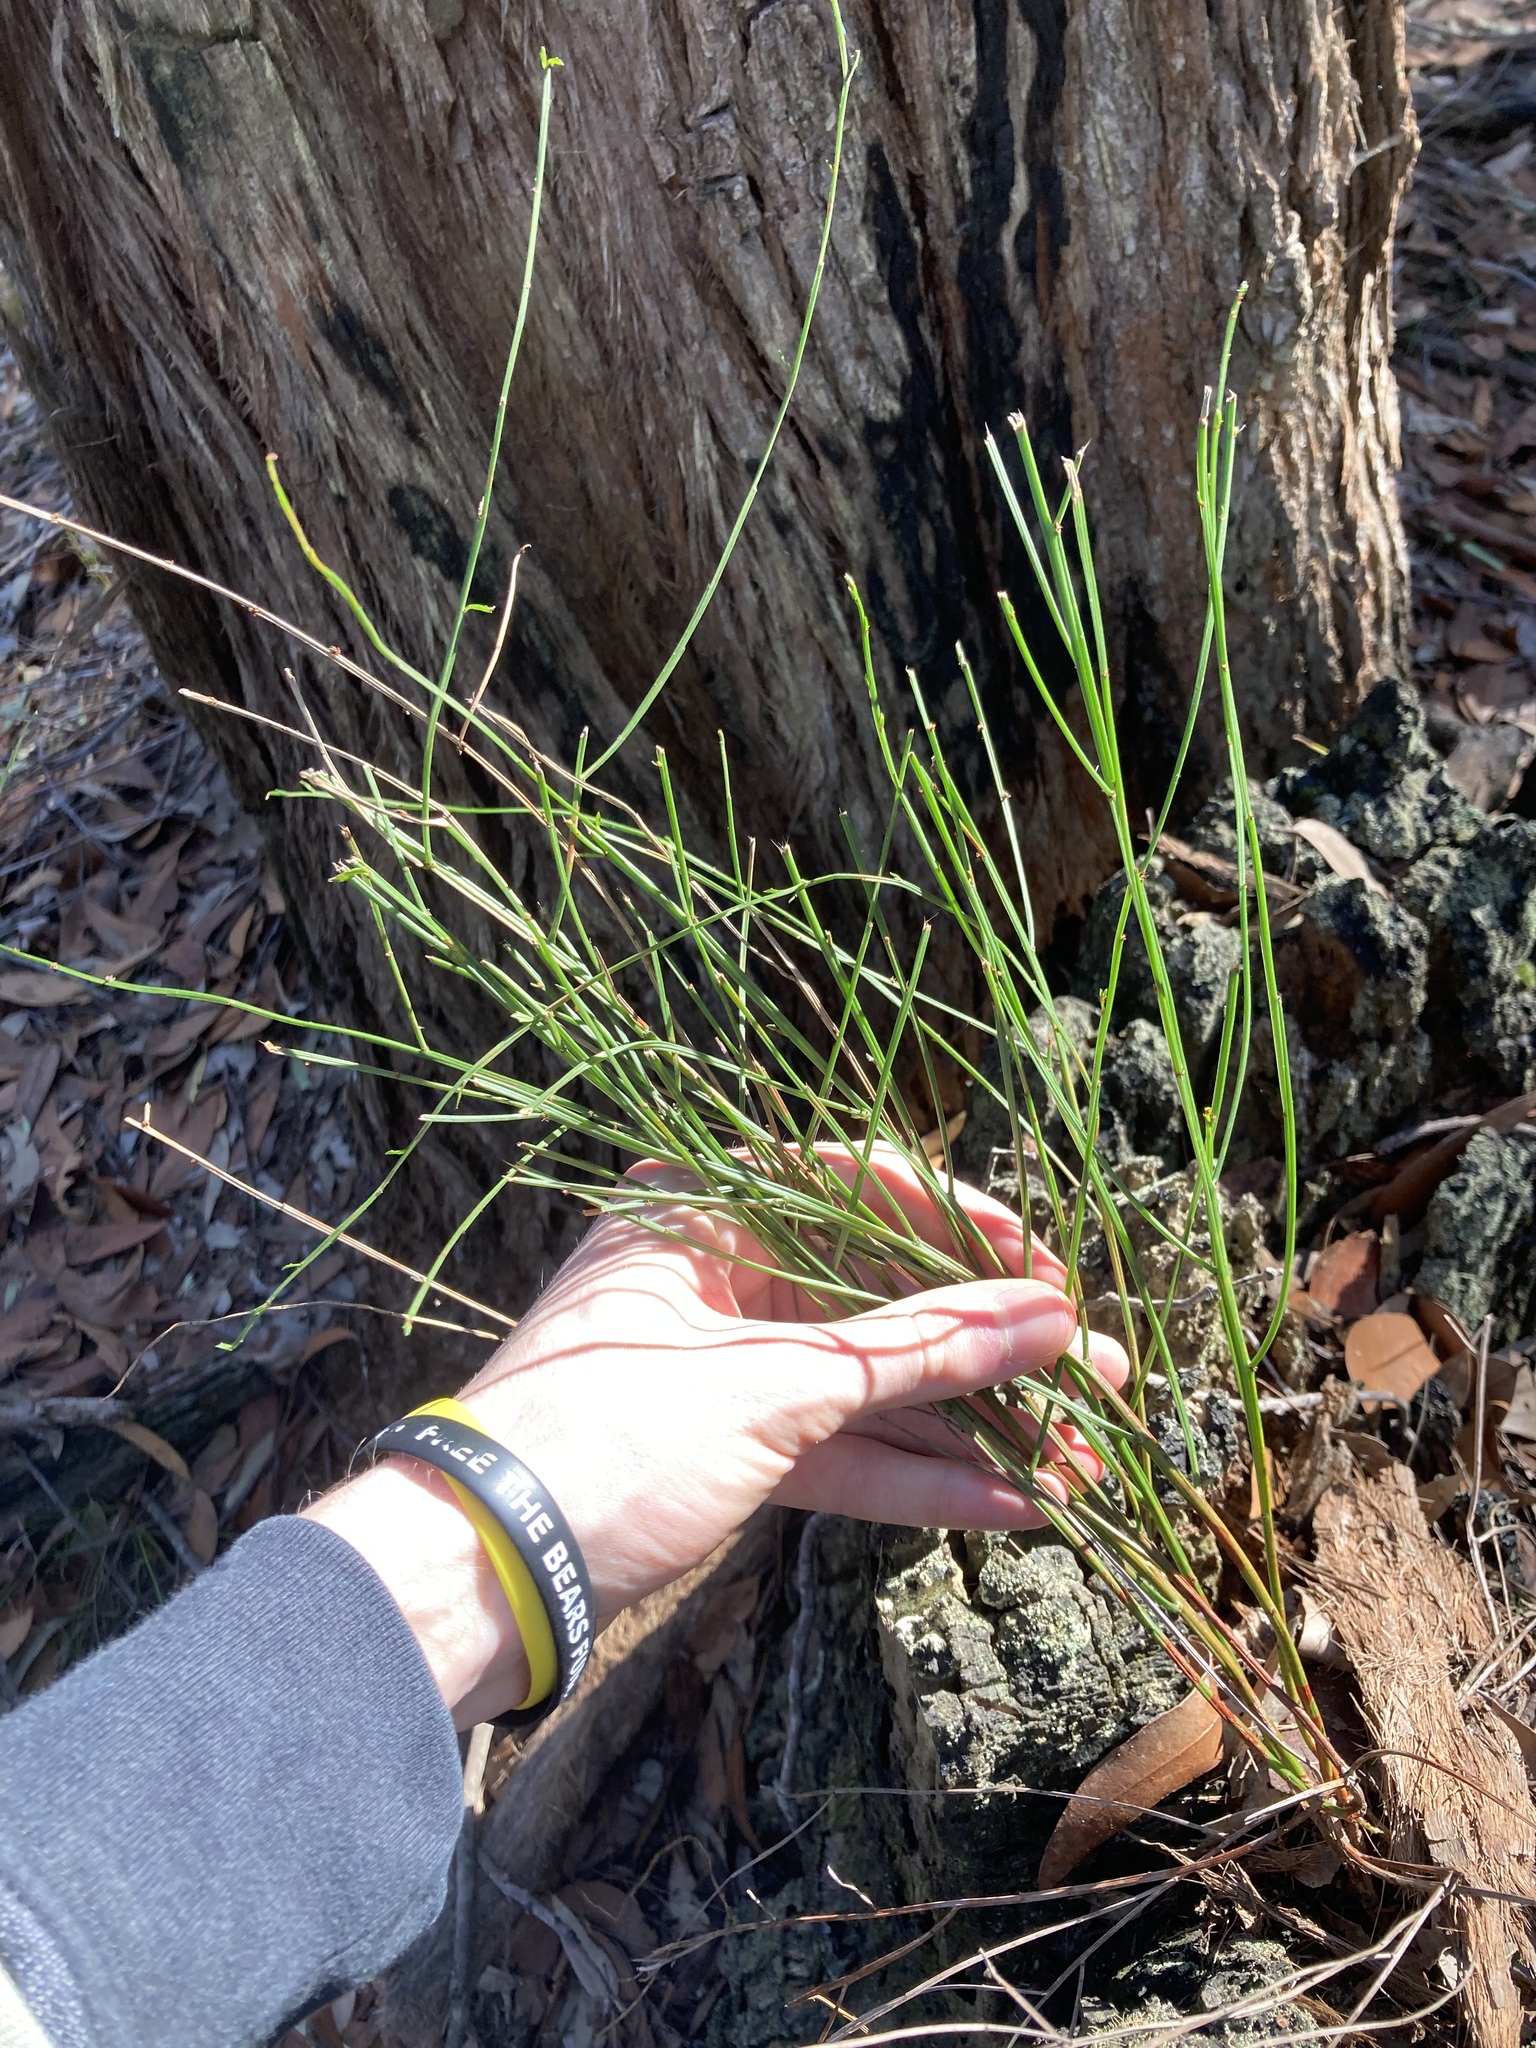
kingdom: Plantae
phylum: Tracheophyta
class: Magnoliopsida
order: Malpighiales
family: Euphorbiaceae
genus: Amperea
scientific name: Amperea xiphoclada
